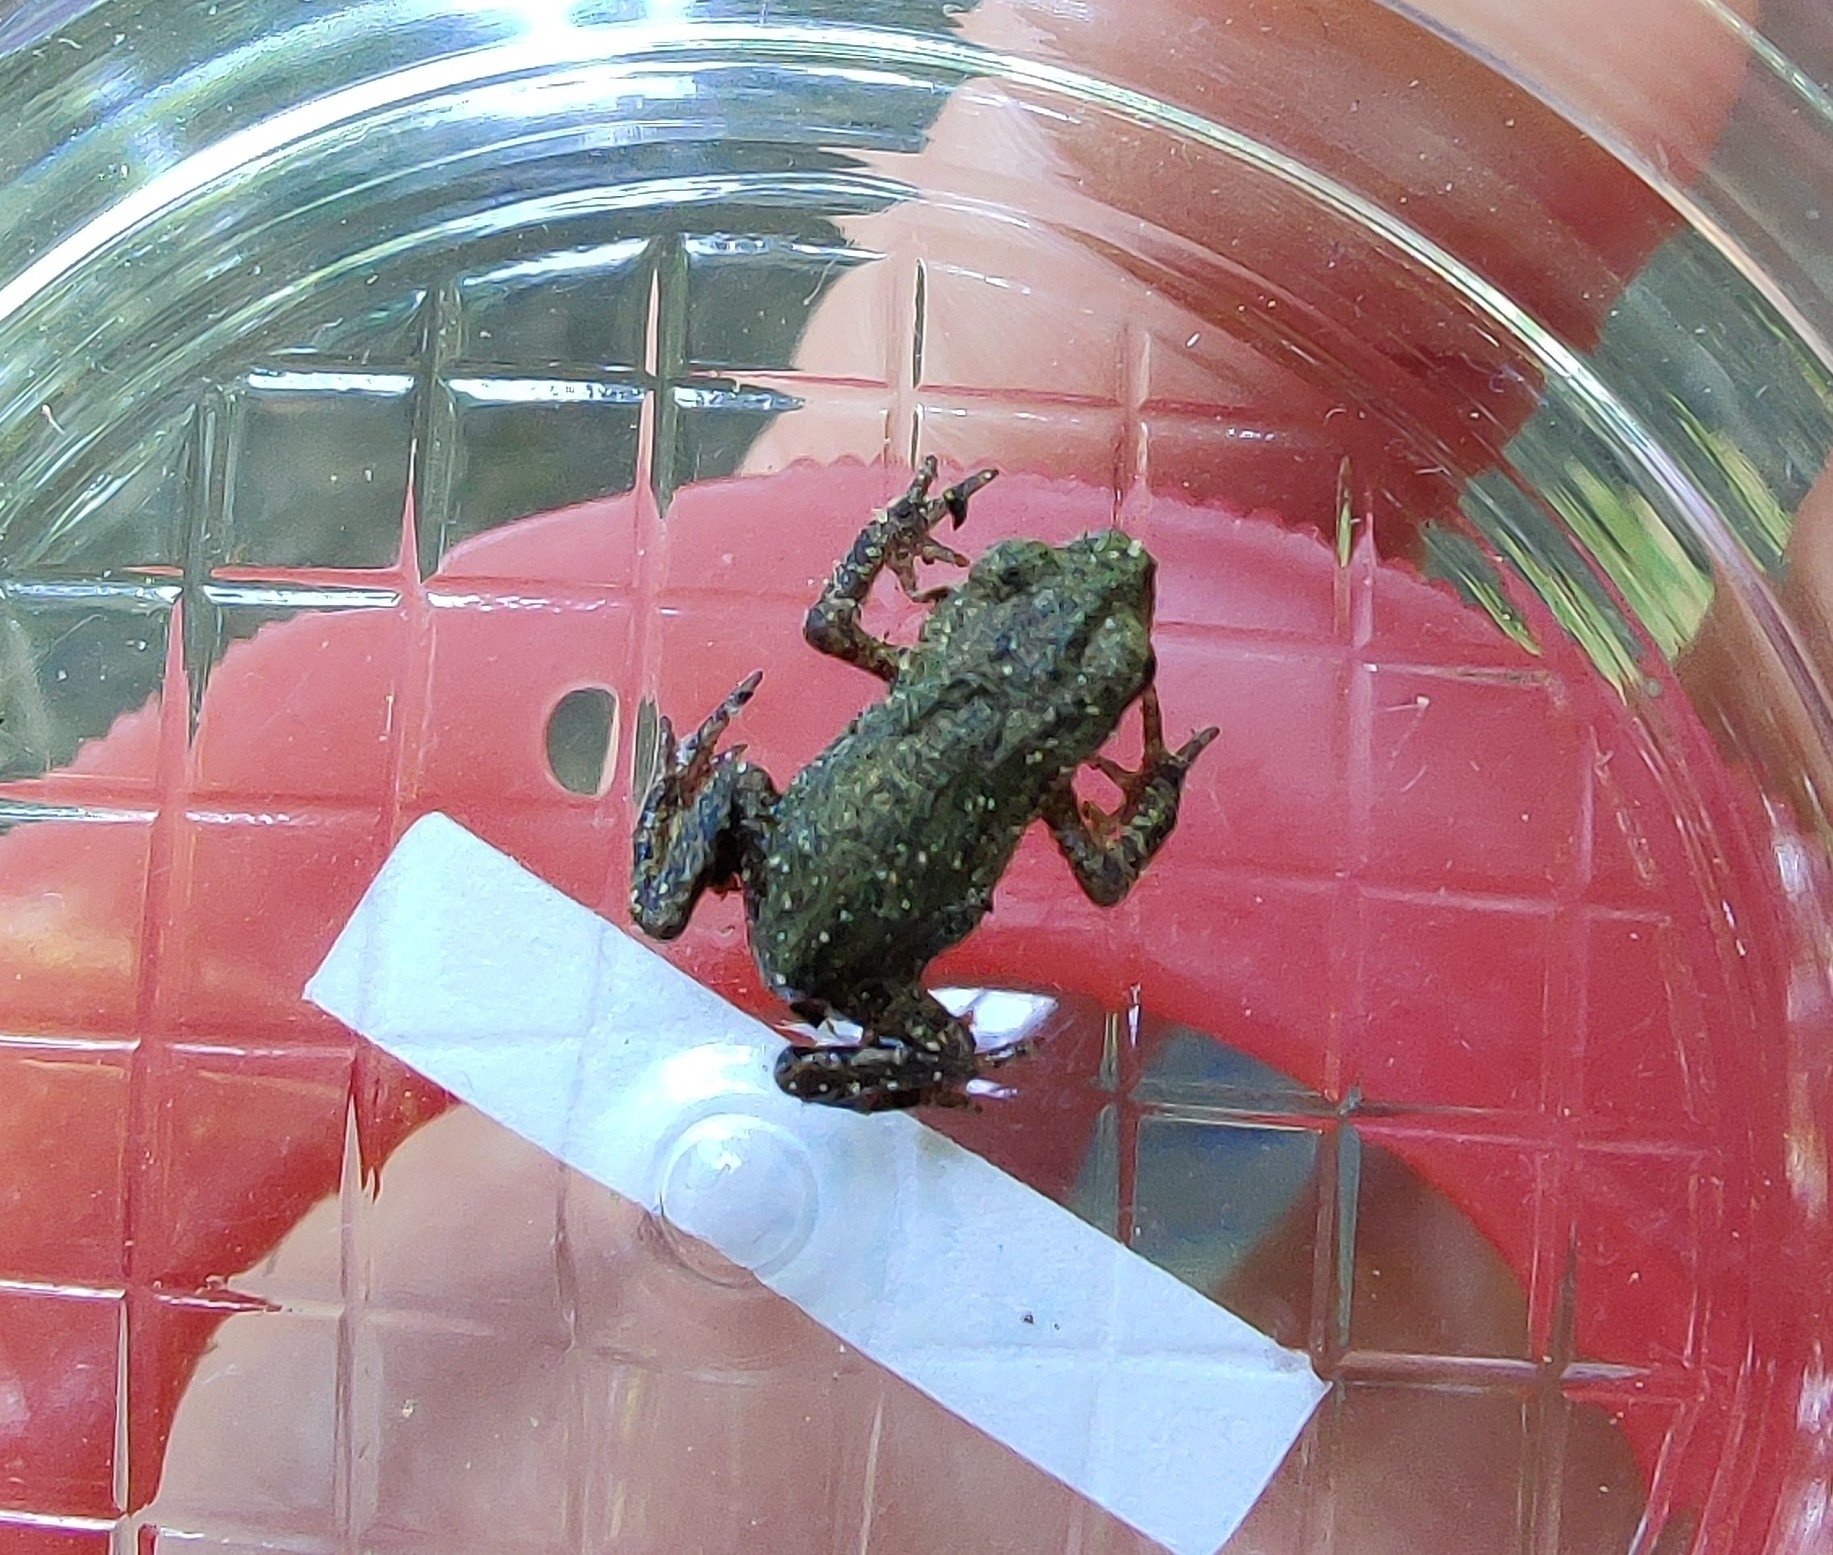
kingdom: Animalia
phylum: Chordata
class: Amphibia
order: Anura
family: Bufonidae
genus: Bufo
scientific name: Bufo bufo
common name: Common toad
